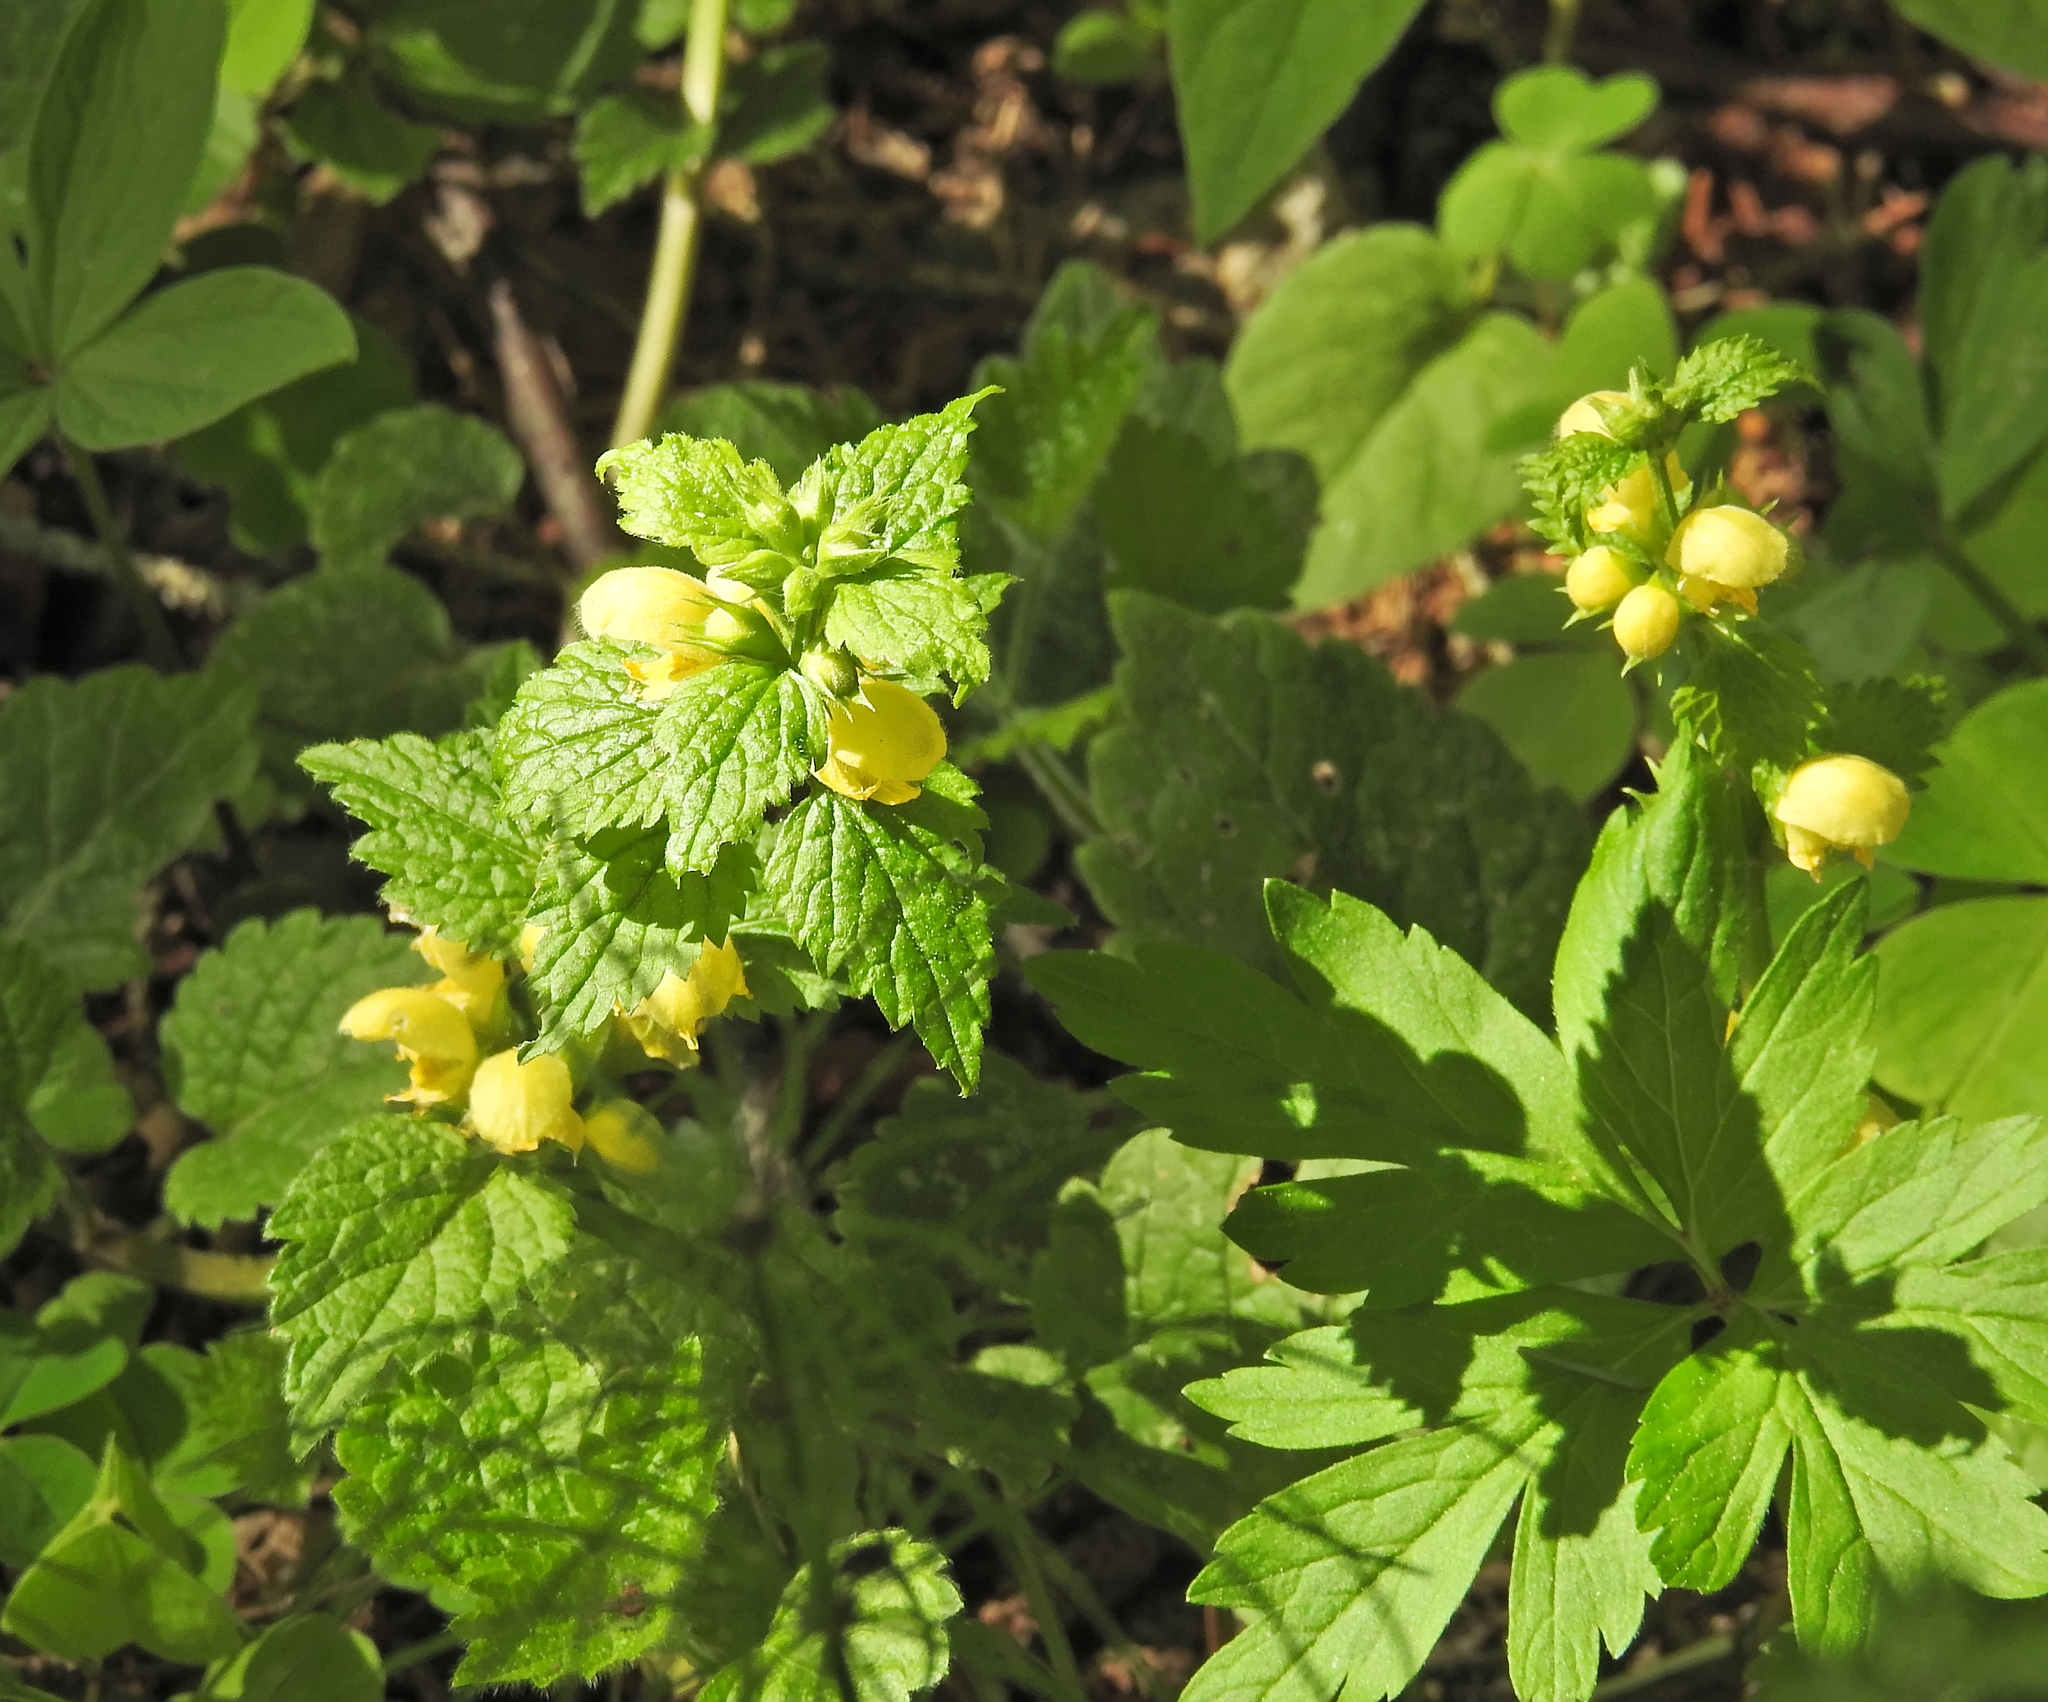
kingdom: Plantae
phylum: Tracheophyta
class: Magnoliopsida
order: Lamiales
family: Lamiaceae
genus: Lamium
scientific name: Lamium galeobdolon
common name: Yellow archangel
